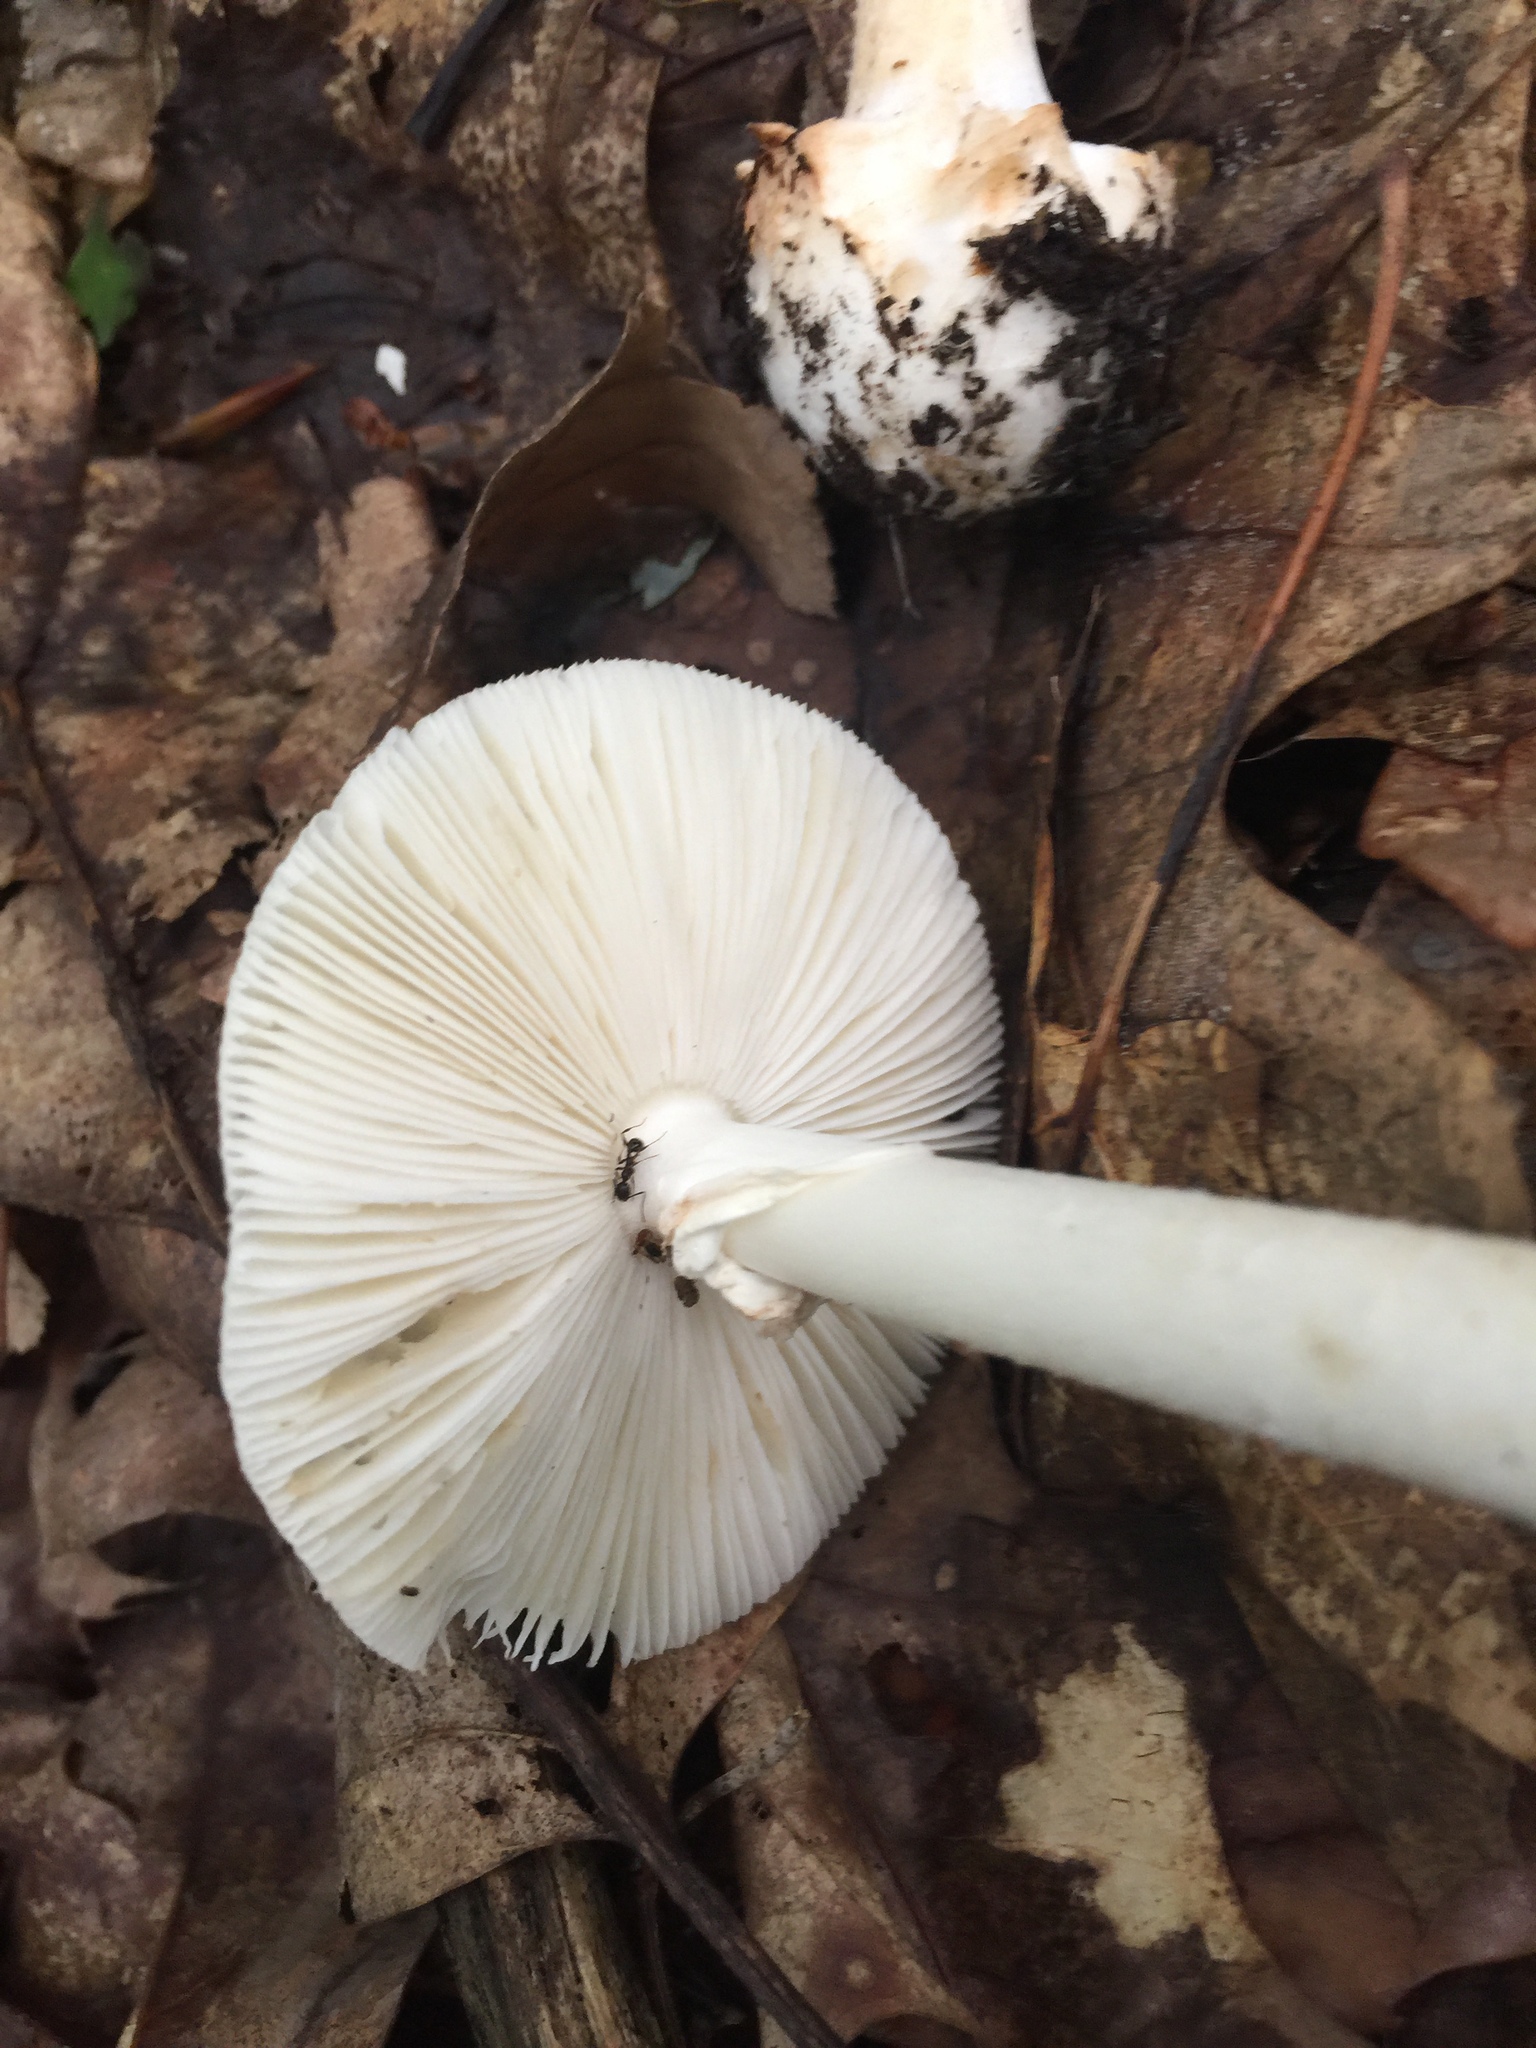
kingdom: Fungi
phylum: Basidiomycota
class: Agaricomycetes
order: Agaricales
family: Amanitaceae
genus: Amanita
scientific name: Amanita brunnescens
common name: Brown american star-footed amanita
